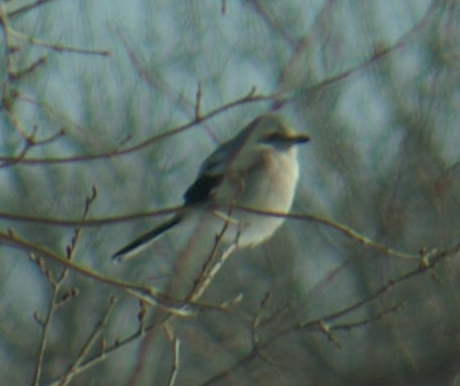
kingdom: Animalia
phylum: Chordata
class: Aves
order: Passeriformes
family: Laniidae
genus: Lanius
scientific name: Lanius borealis
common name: Northern shrike
